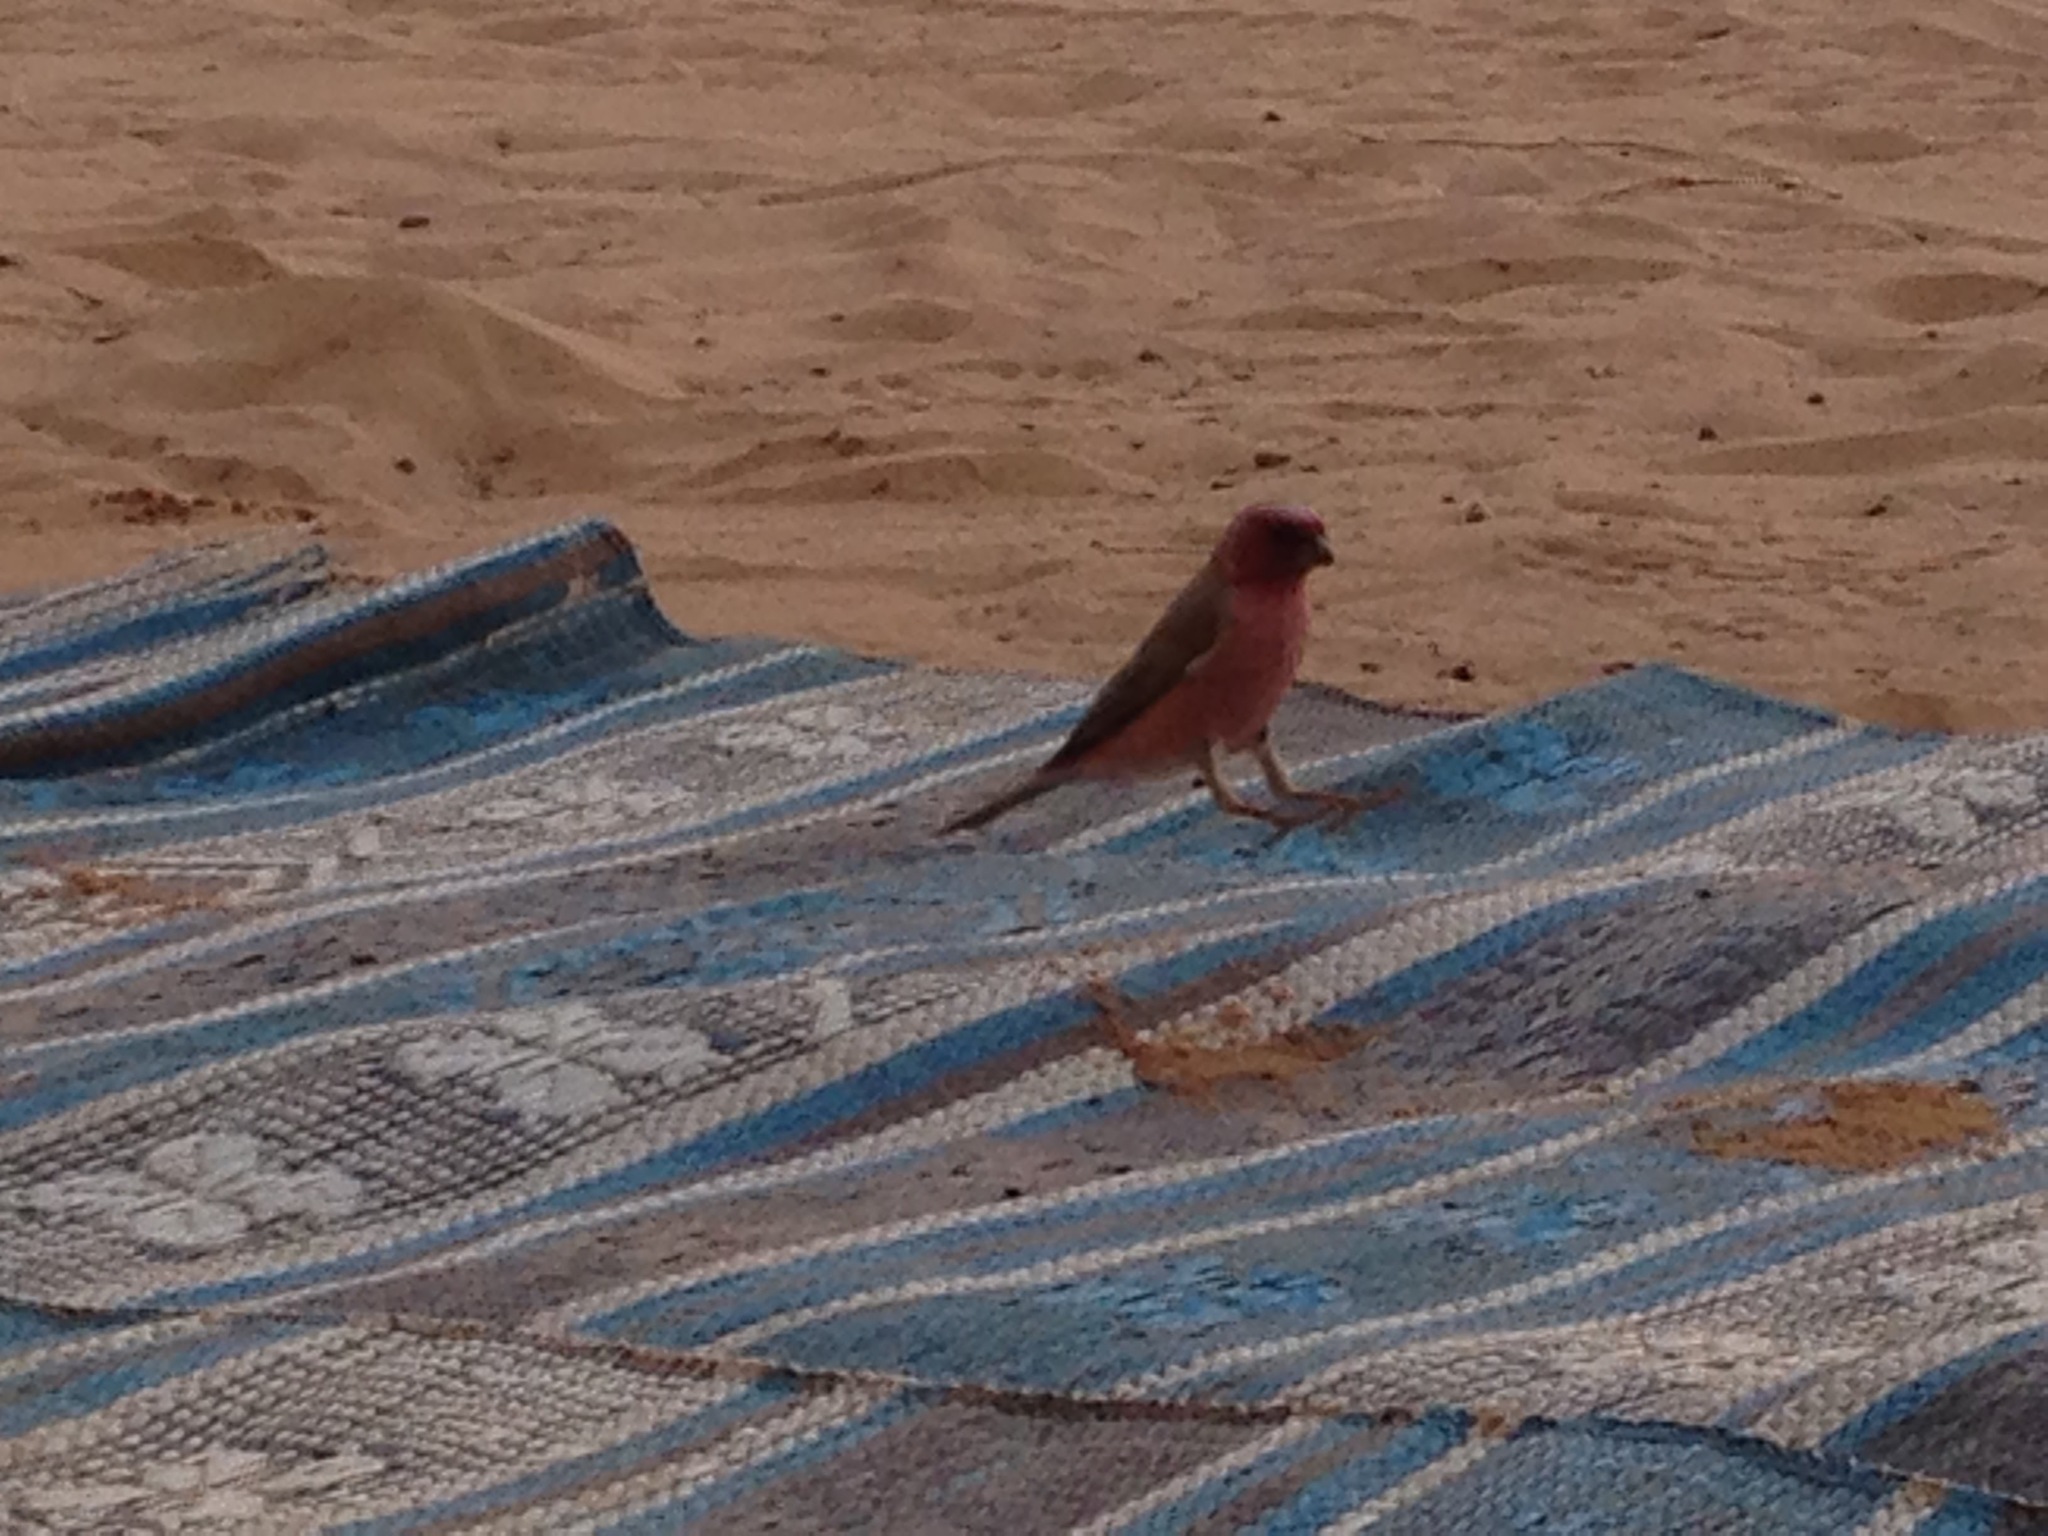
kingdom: Animalia
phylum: Chordata
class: Aves
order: Passeriformes
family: Fringillidae
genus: Carpodacus
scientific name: Carpodacus synoicus
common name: Sinai rosefinch
